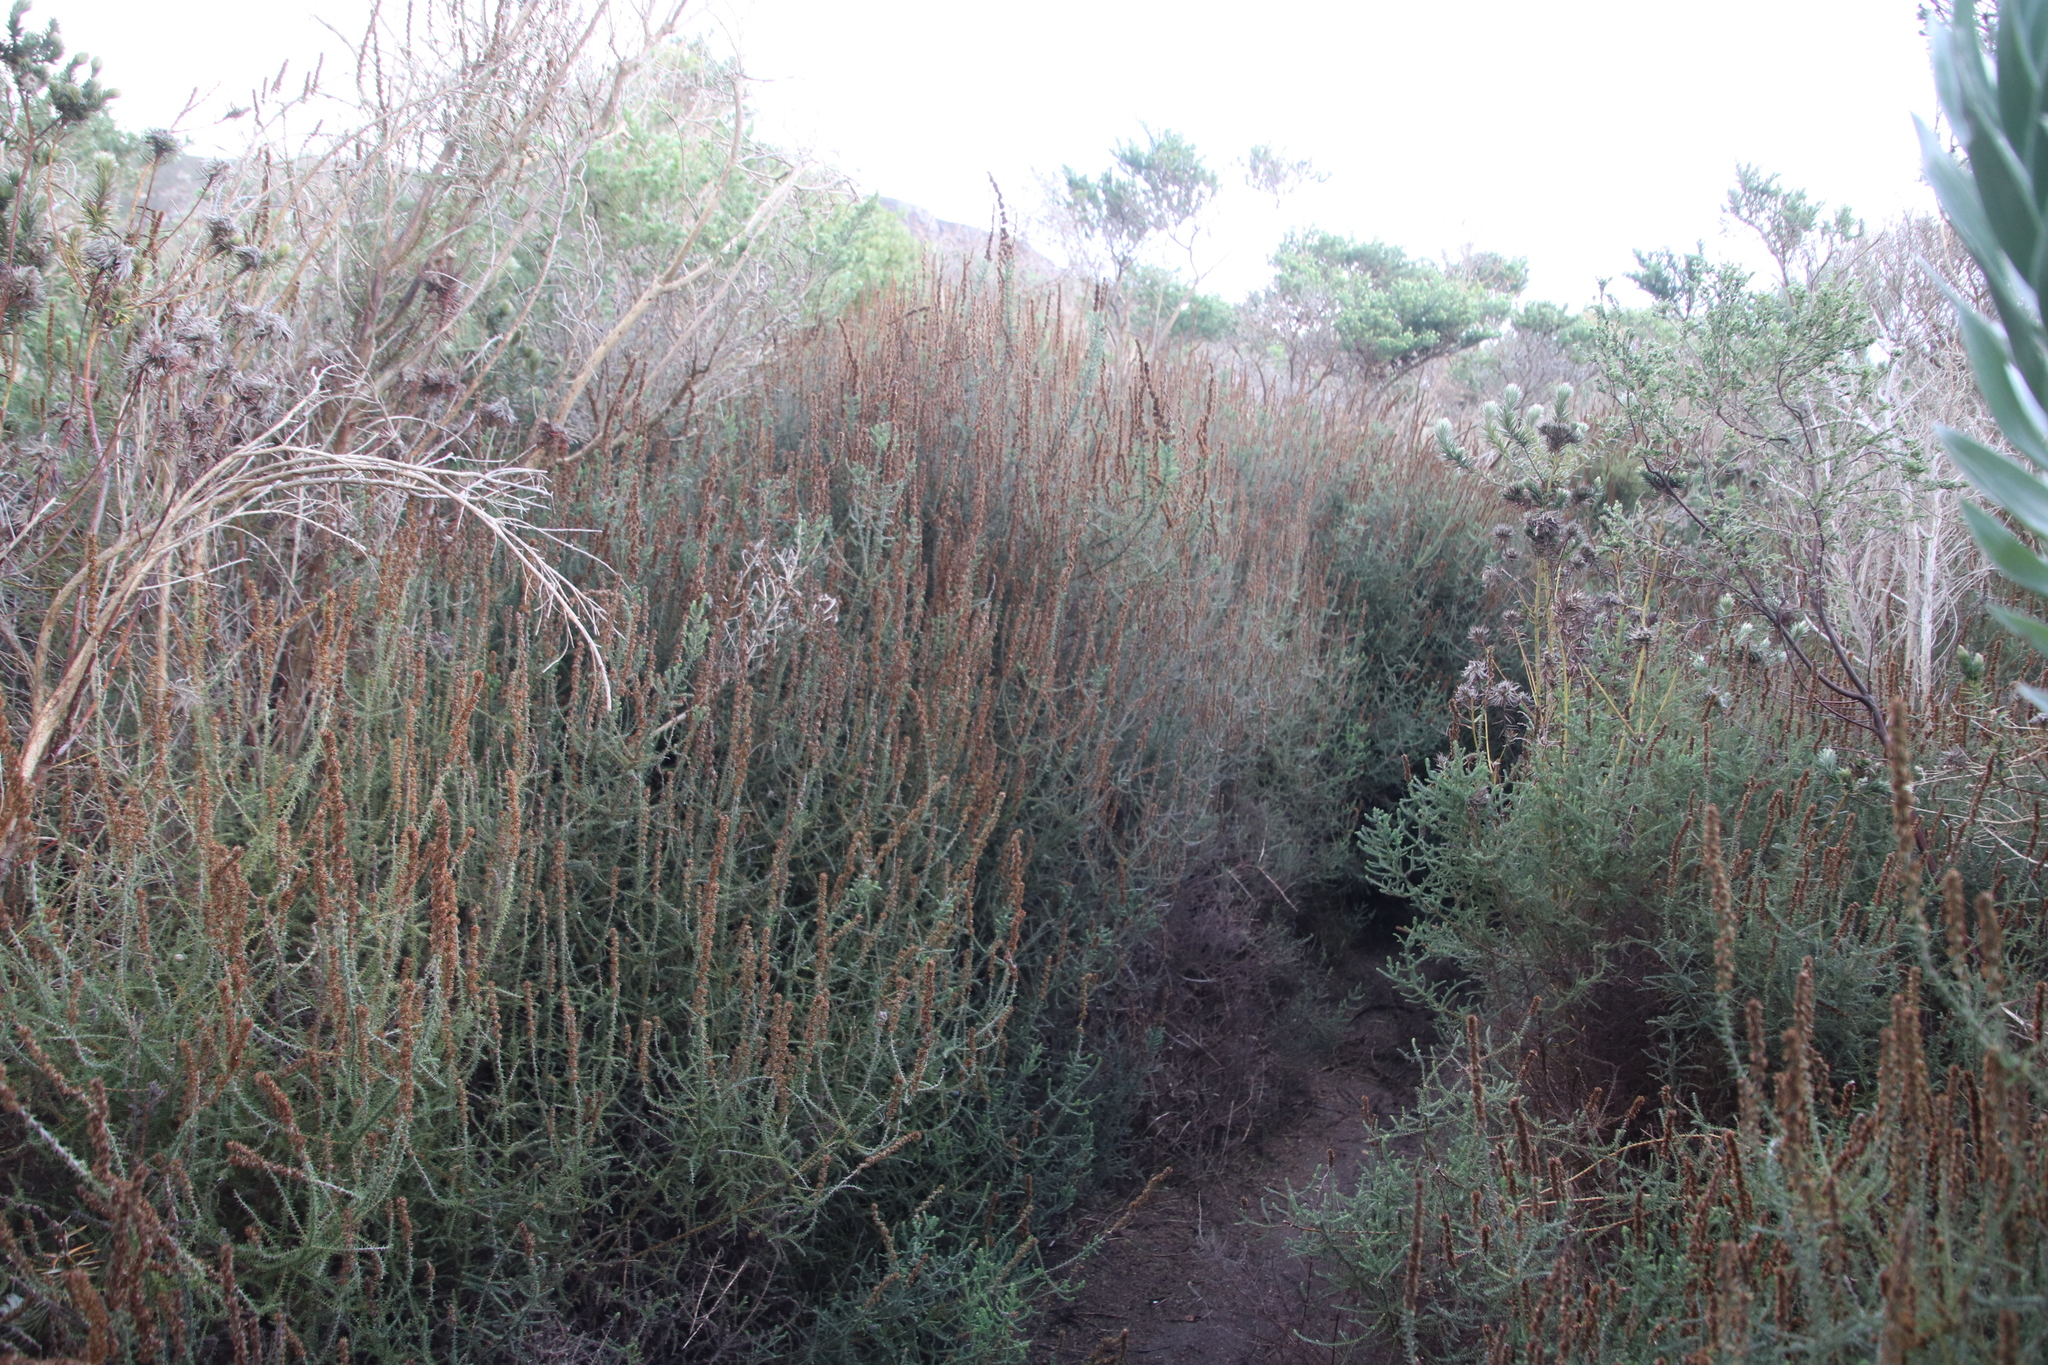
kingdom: Plantae
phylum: Tracheophyta
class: Magnoliopsida
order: Asterales
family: Asteraceae
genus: Seriphium
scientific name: Seriphium cinereum
